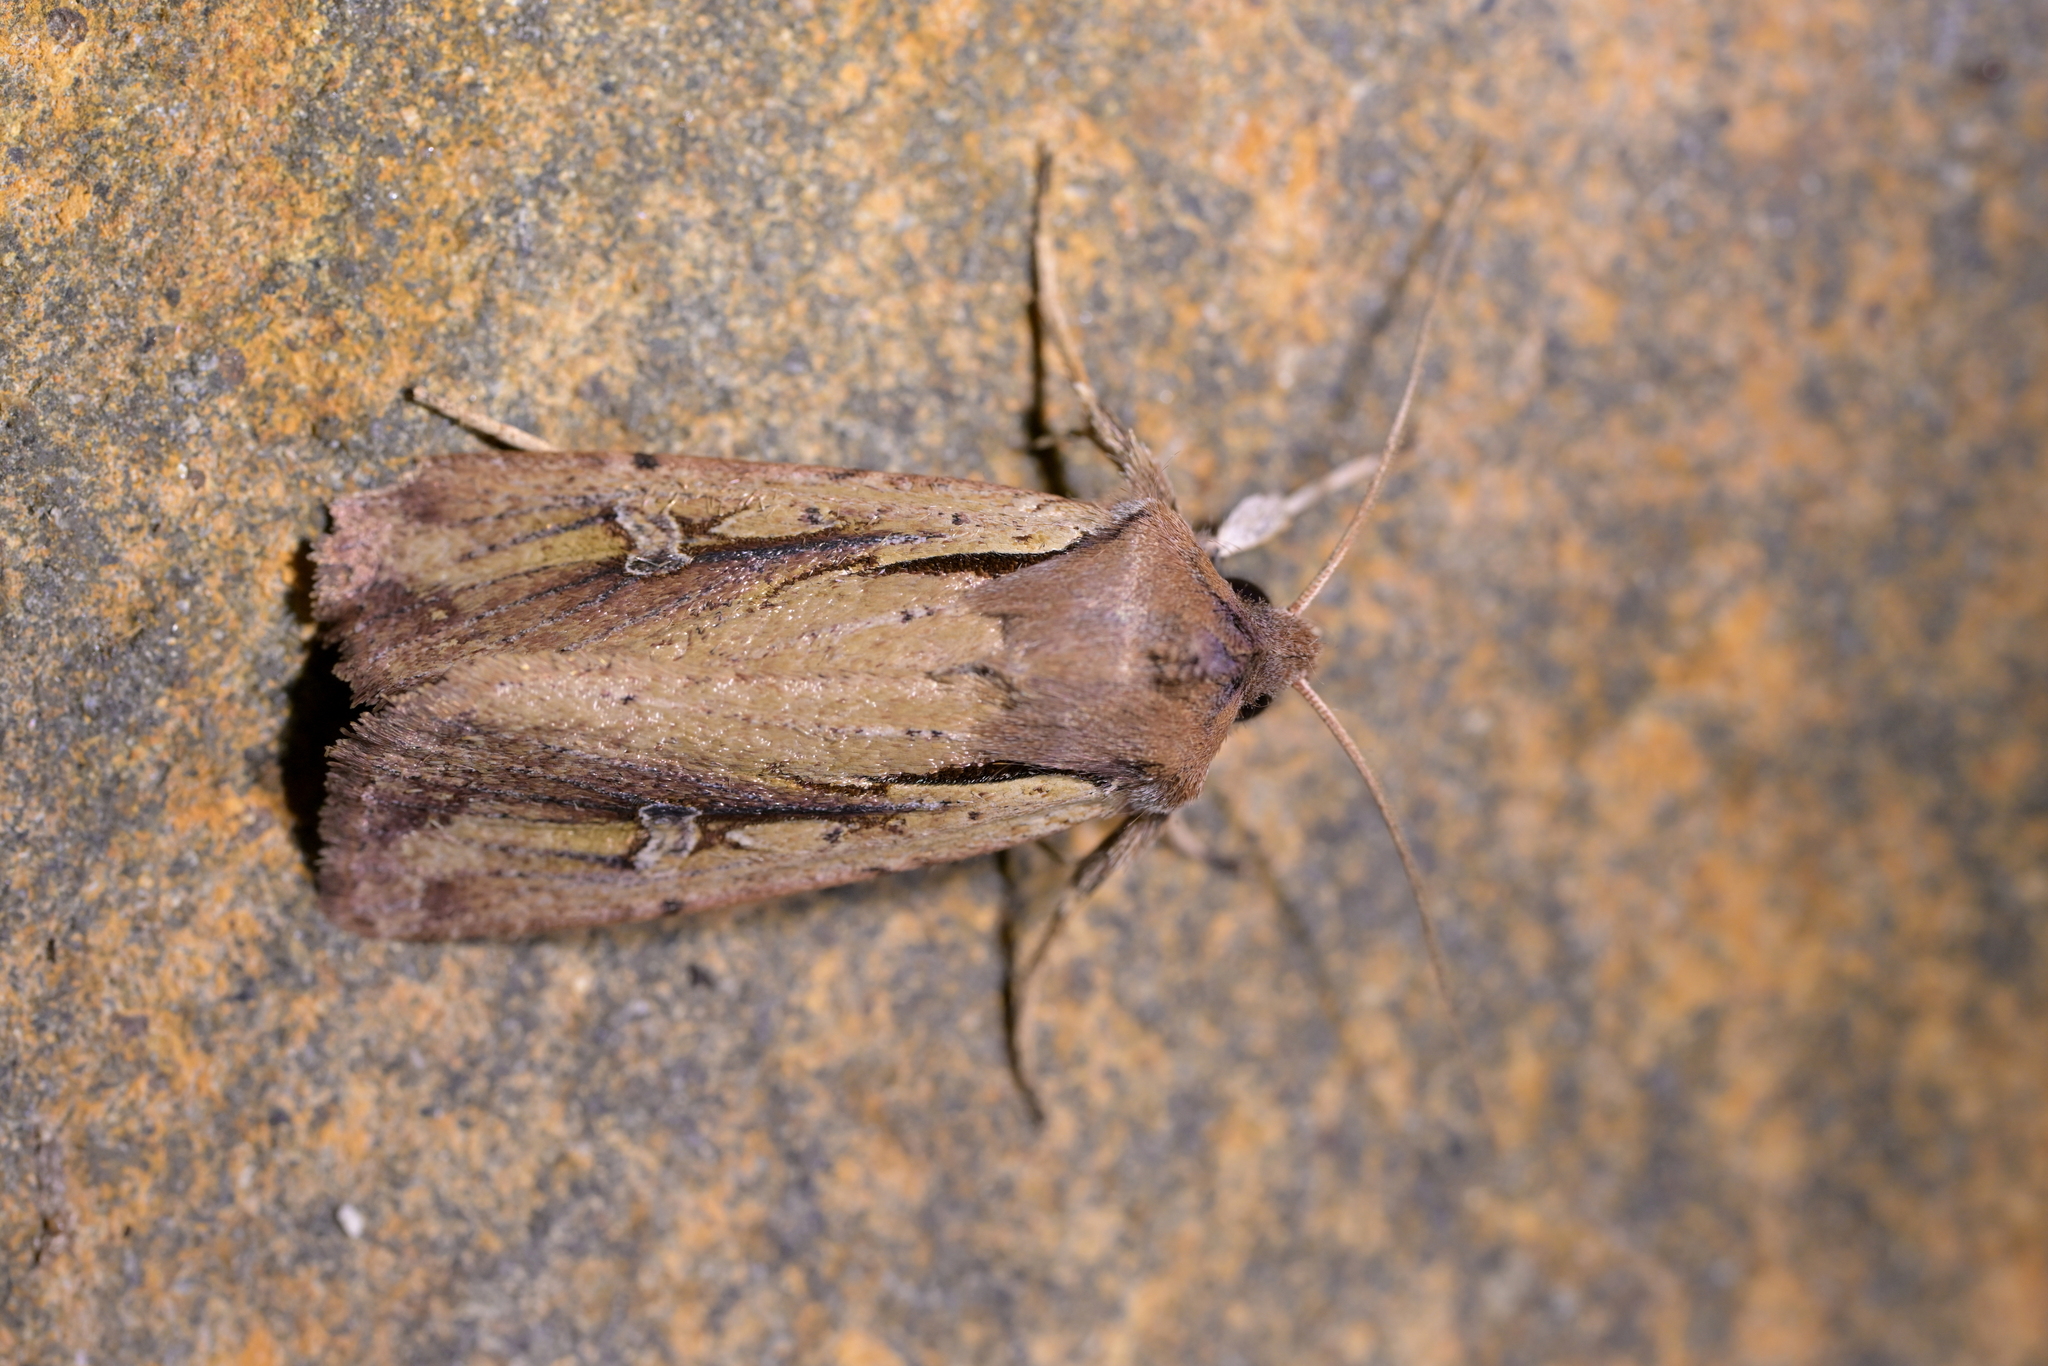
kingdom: Animalia
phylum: Arthropoda
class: Insecta
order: Lepidoptera
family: Noctuidae
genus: Ichneutica
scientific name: Ichneutica atristriga
